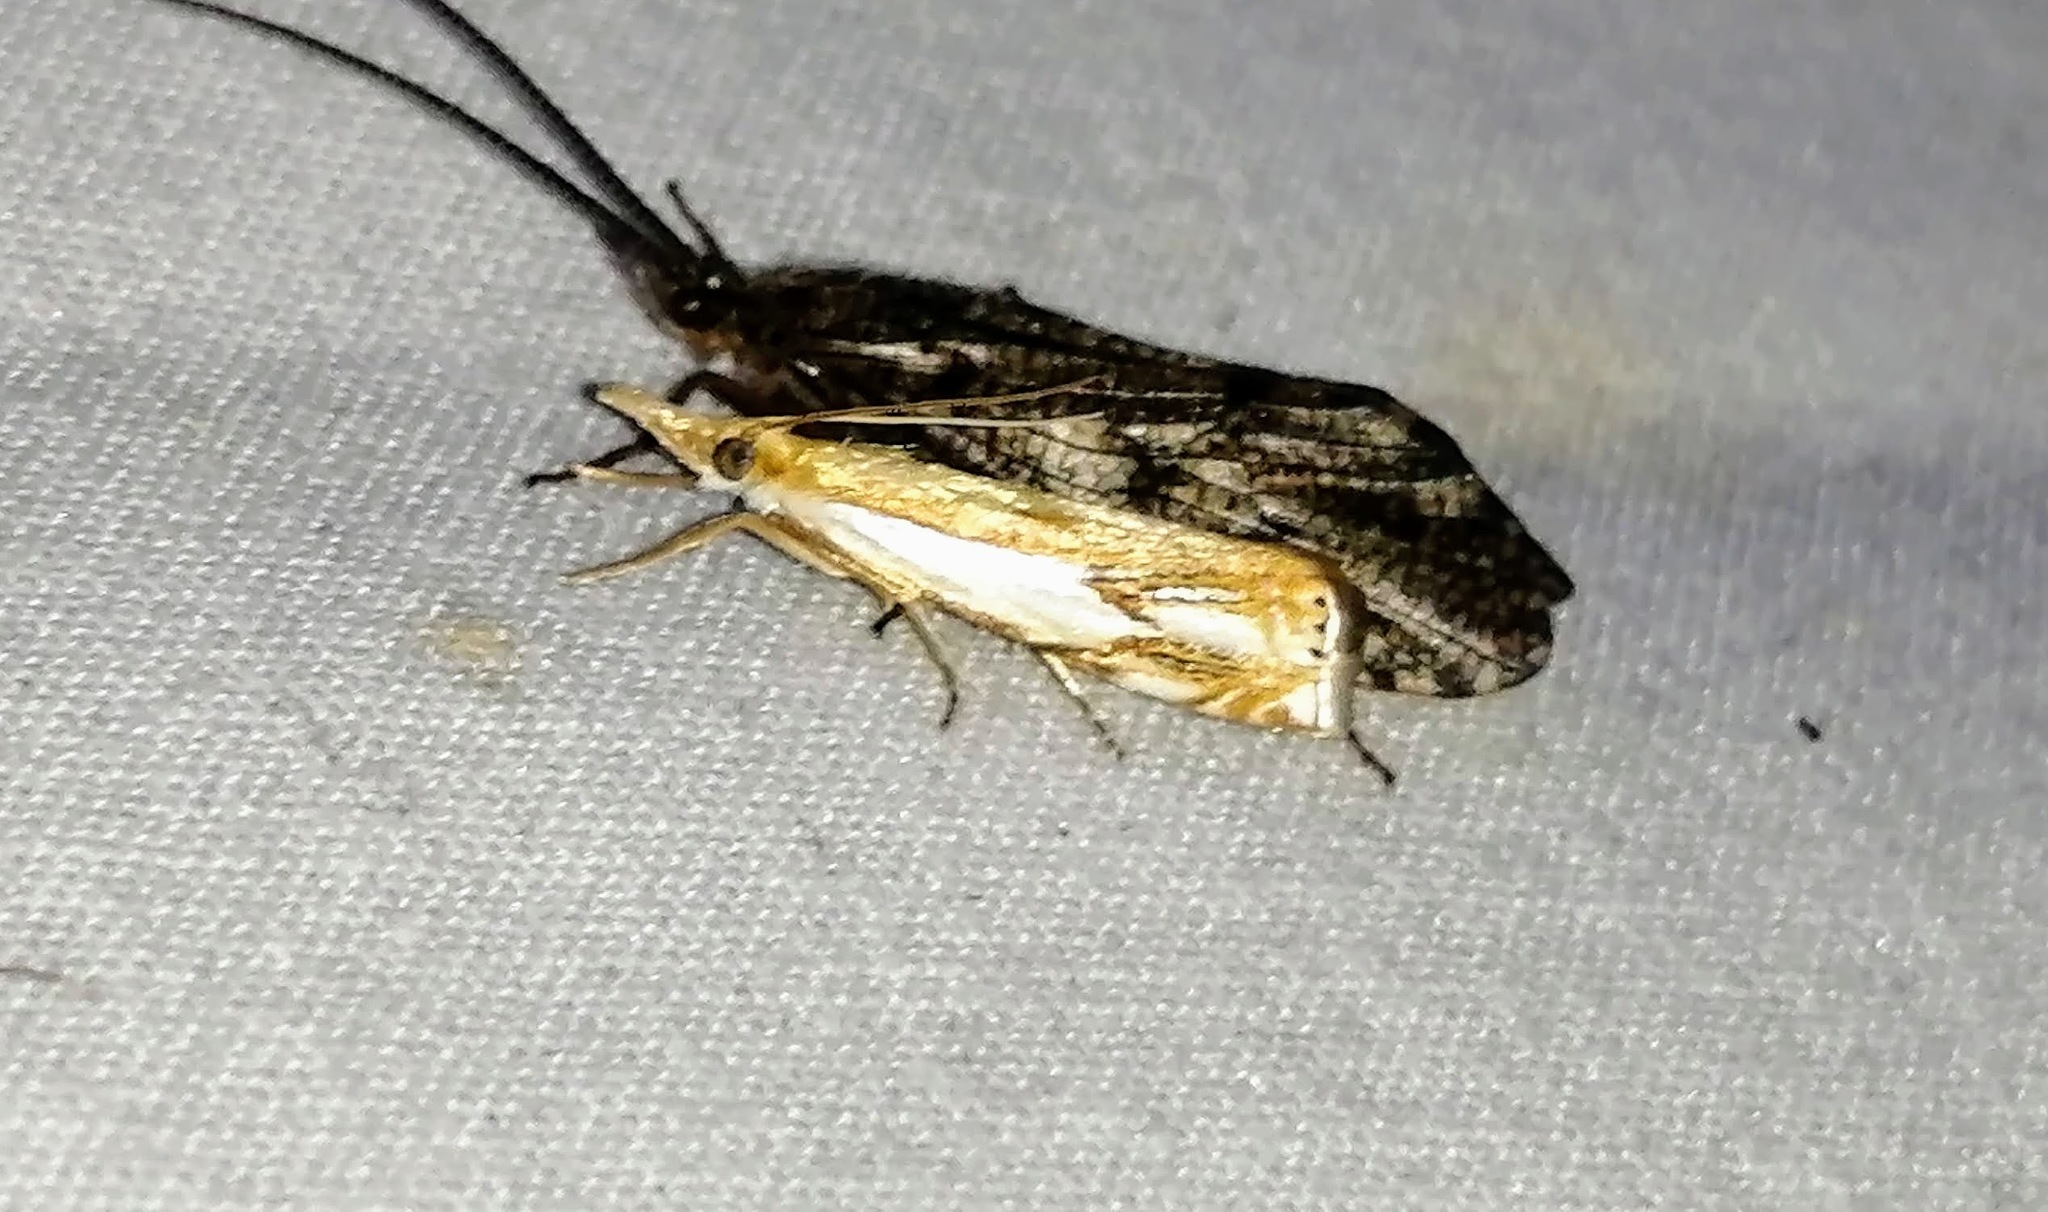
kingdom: Animalia
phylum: Arthropoda
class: Insecta
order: Lepidoptera
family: Crambidae
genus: Crambus
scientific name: Crambus agitatellus
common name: Double-banded grass-veneer
